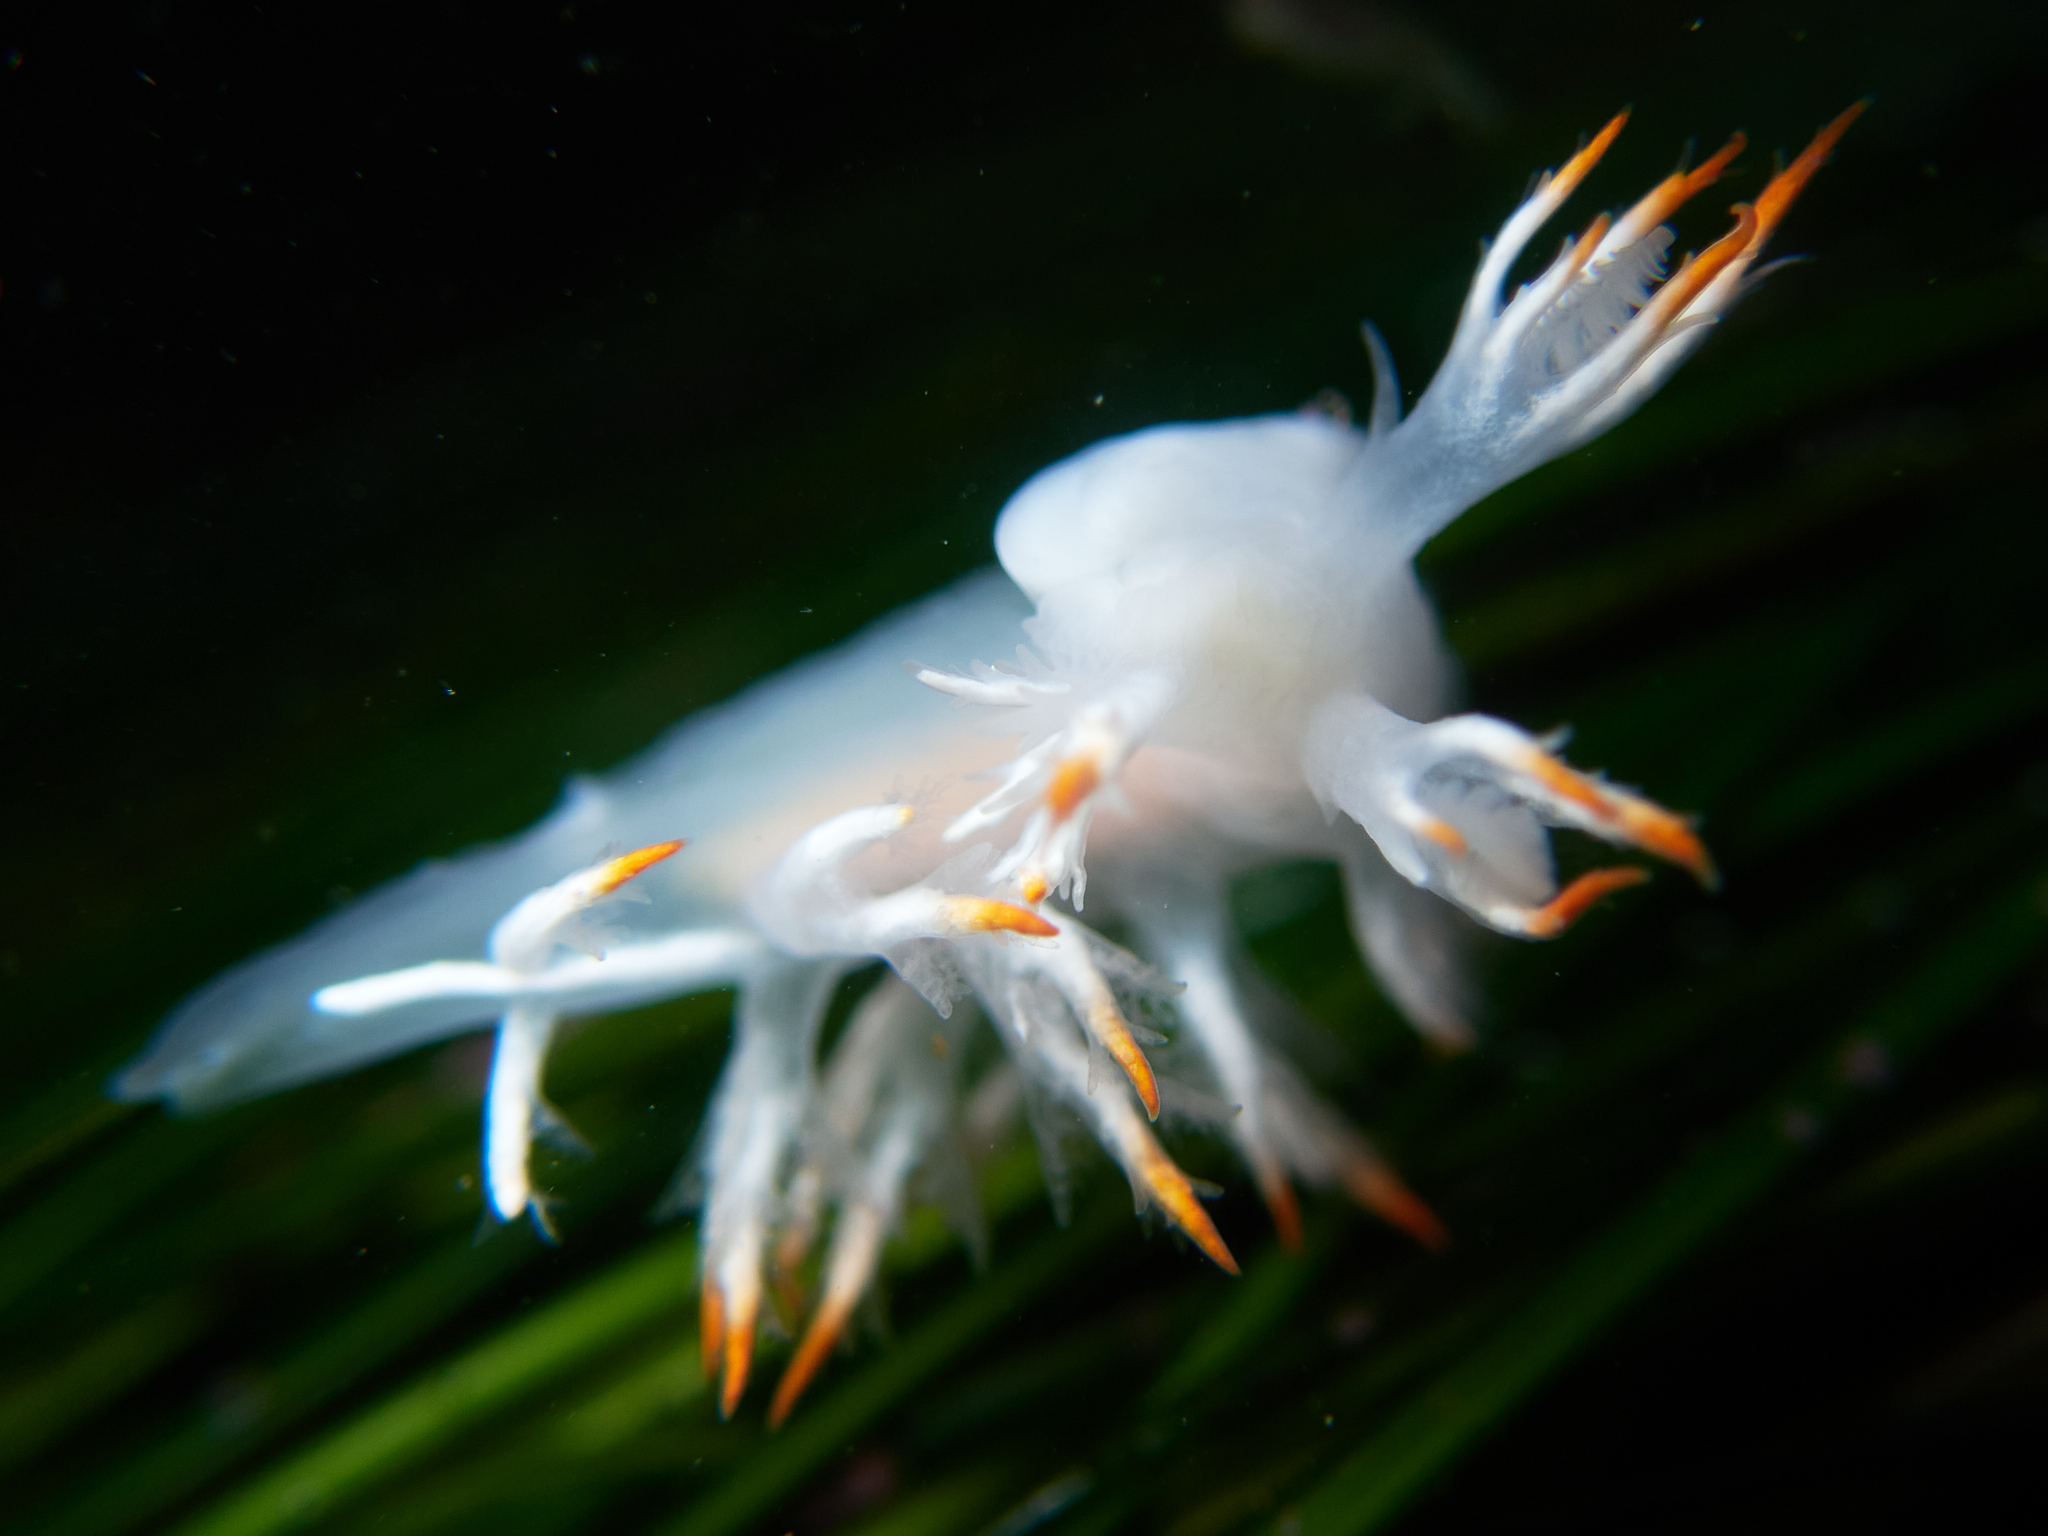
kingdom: Animalia
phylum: Mollusca
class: Gastropoda
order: Nudibranchia
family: Dendronotidae
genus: Dendronotus
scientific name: Dendronotus albus
